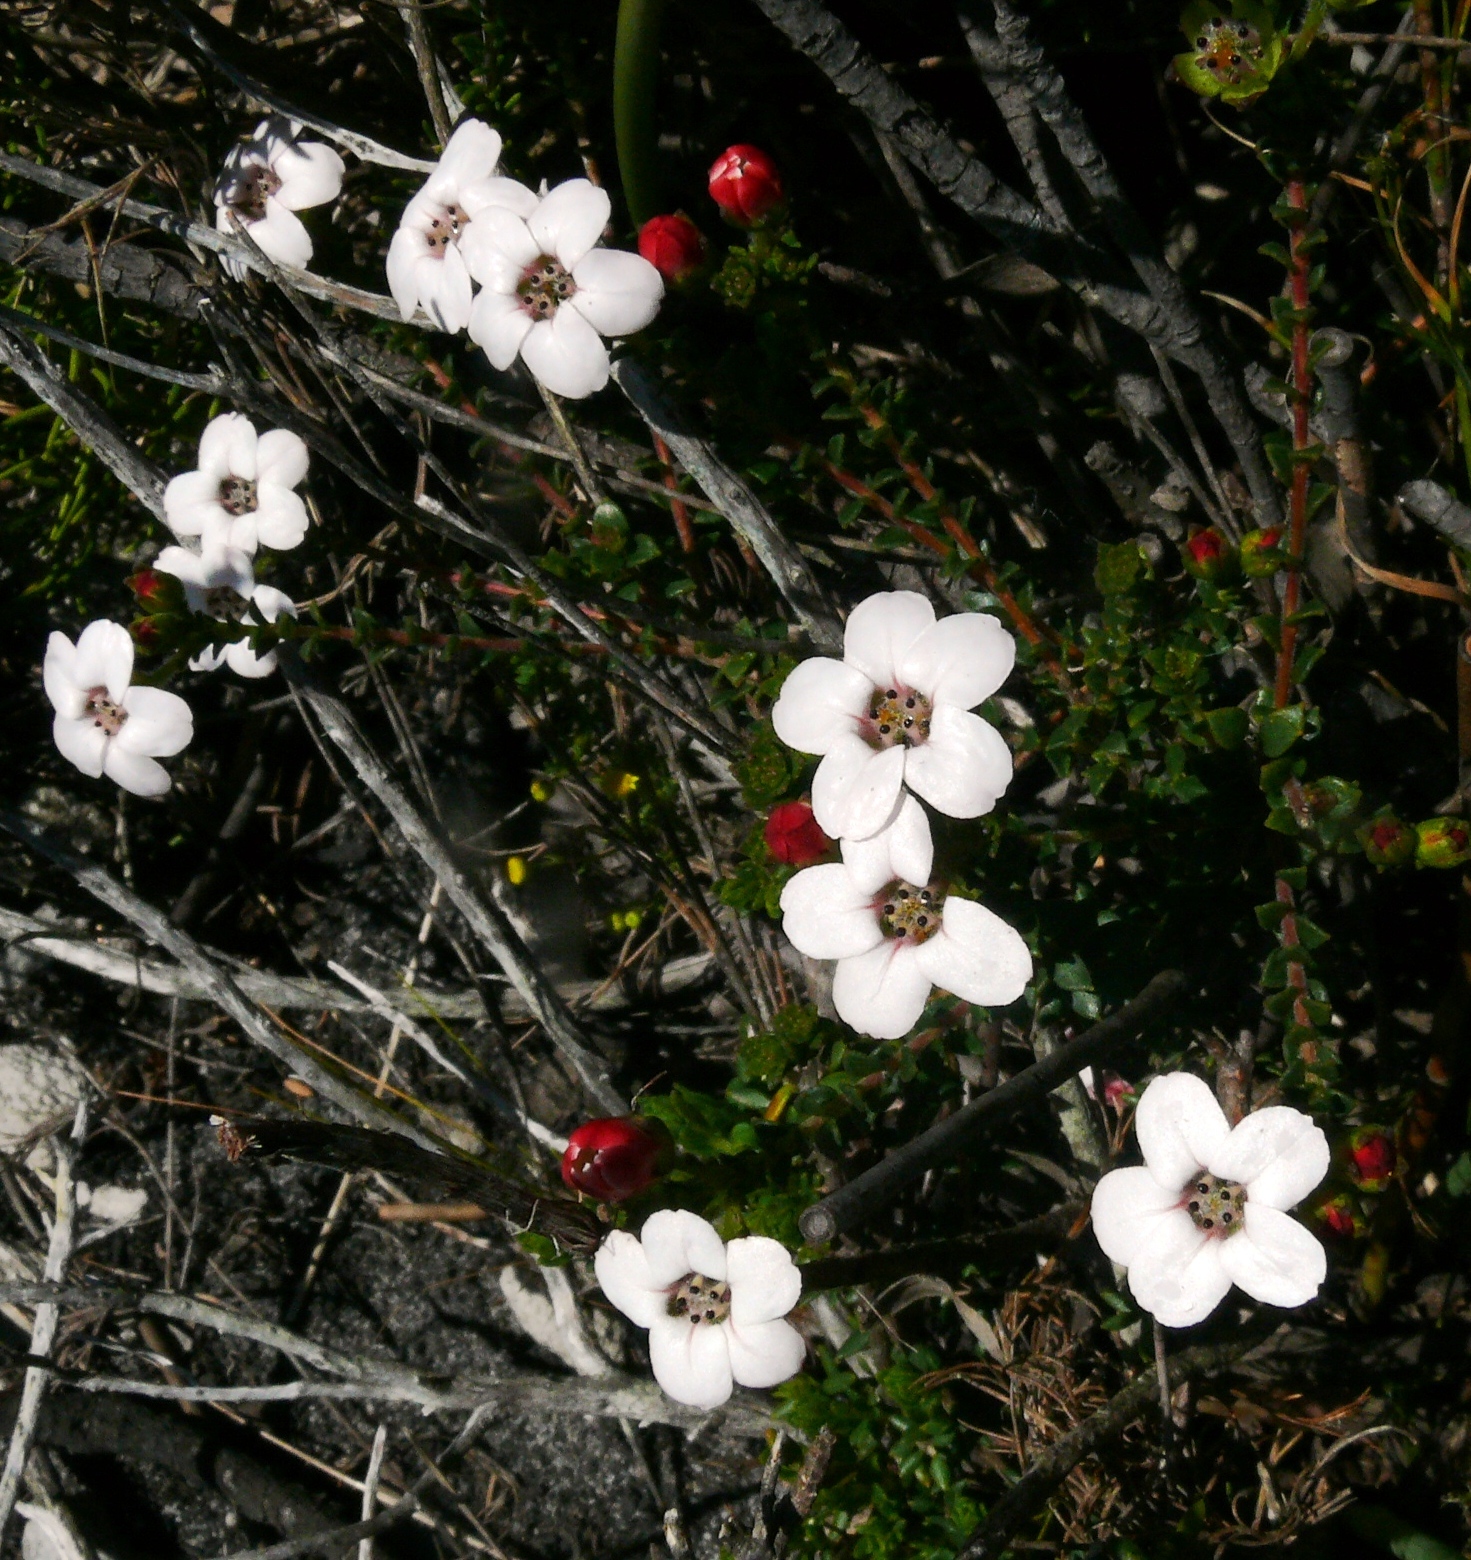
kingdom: Plantae
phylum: Tracheophyta
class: Magnoliopsida
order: Sapindales
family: Rutaceae
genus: Adenandra
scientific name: Adenandra brachyphylla
